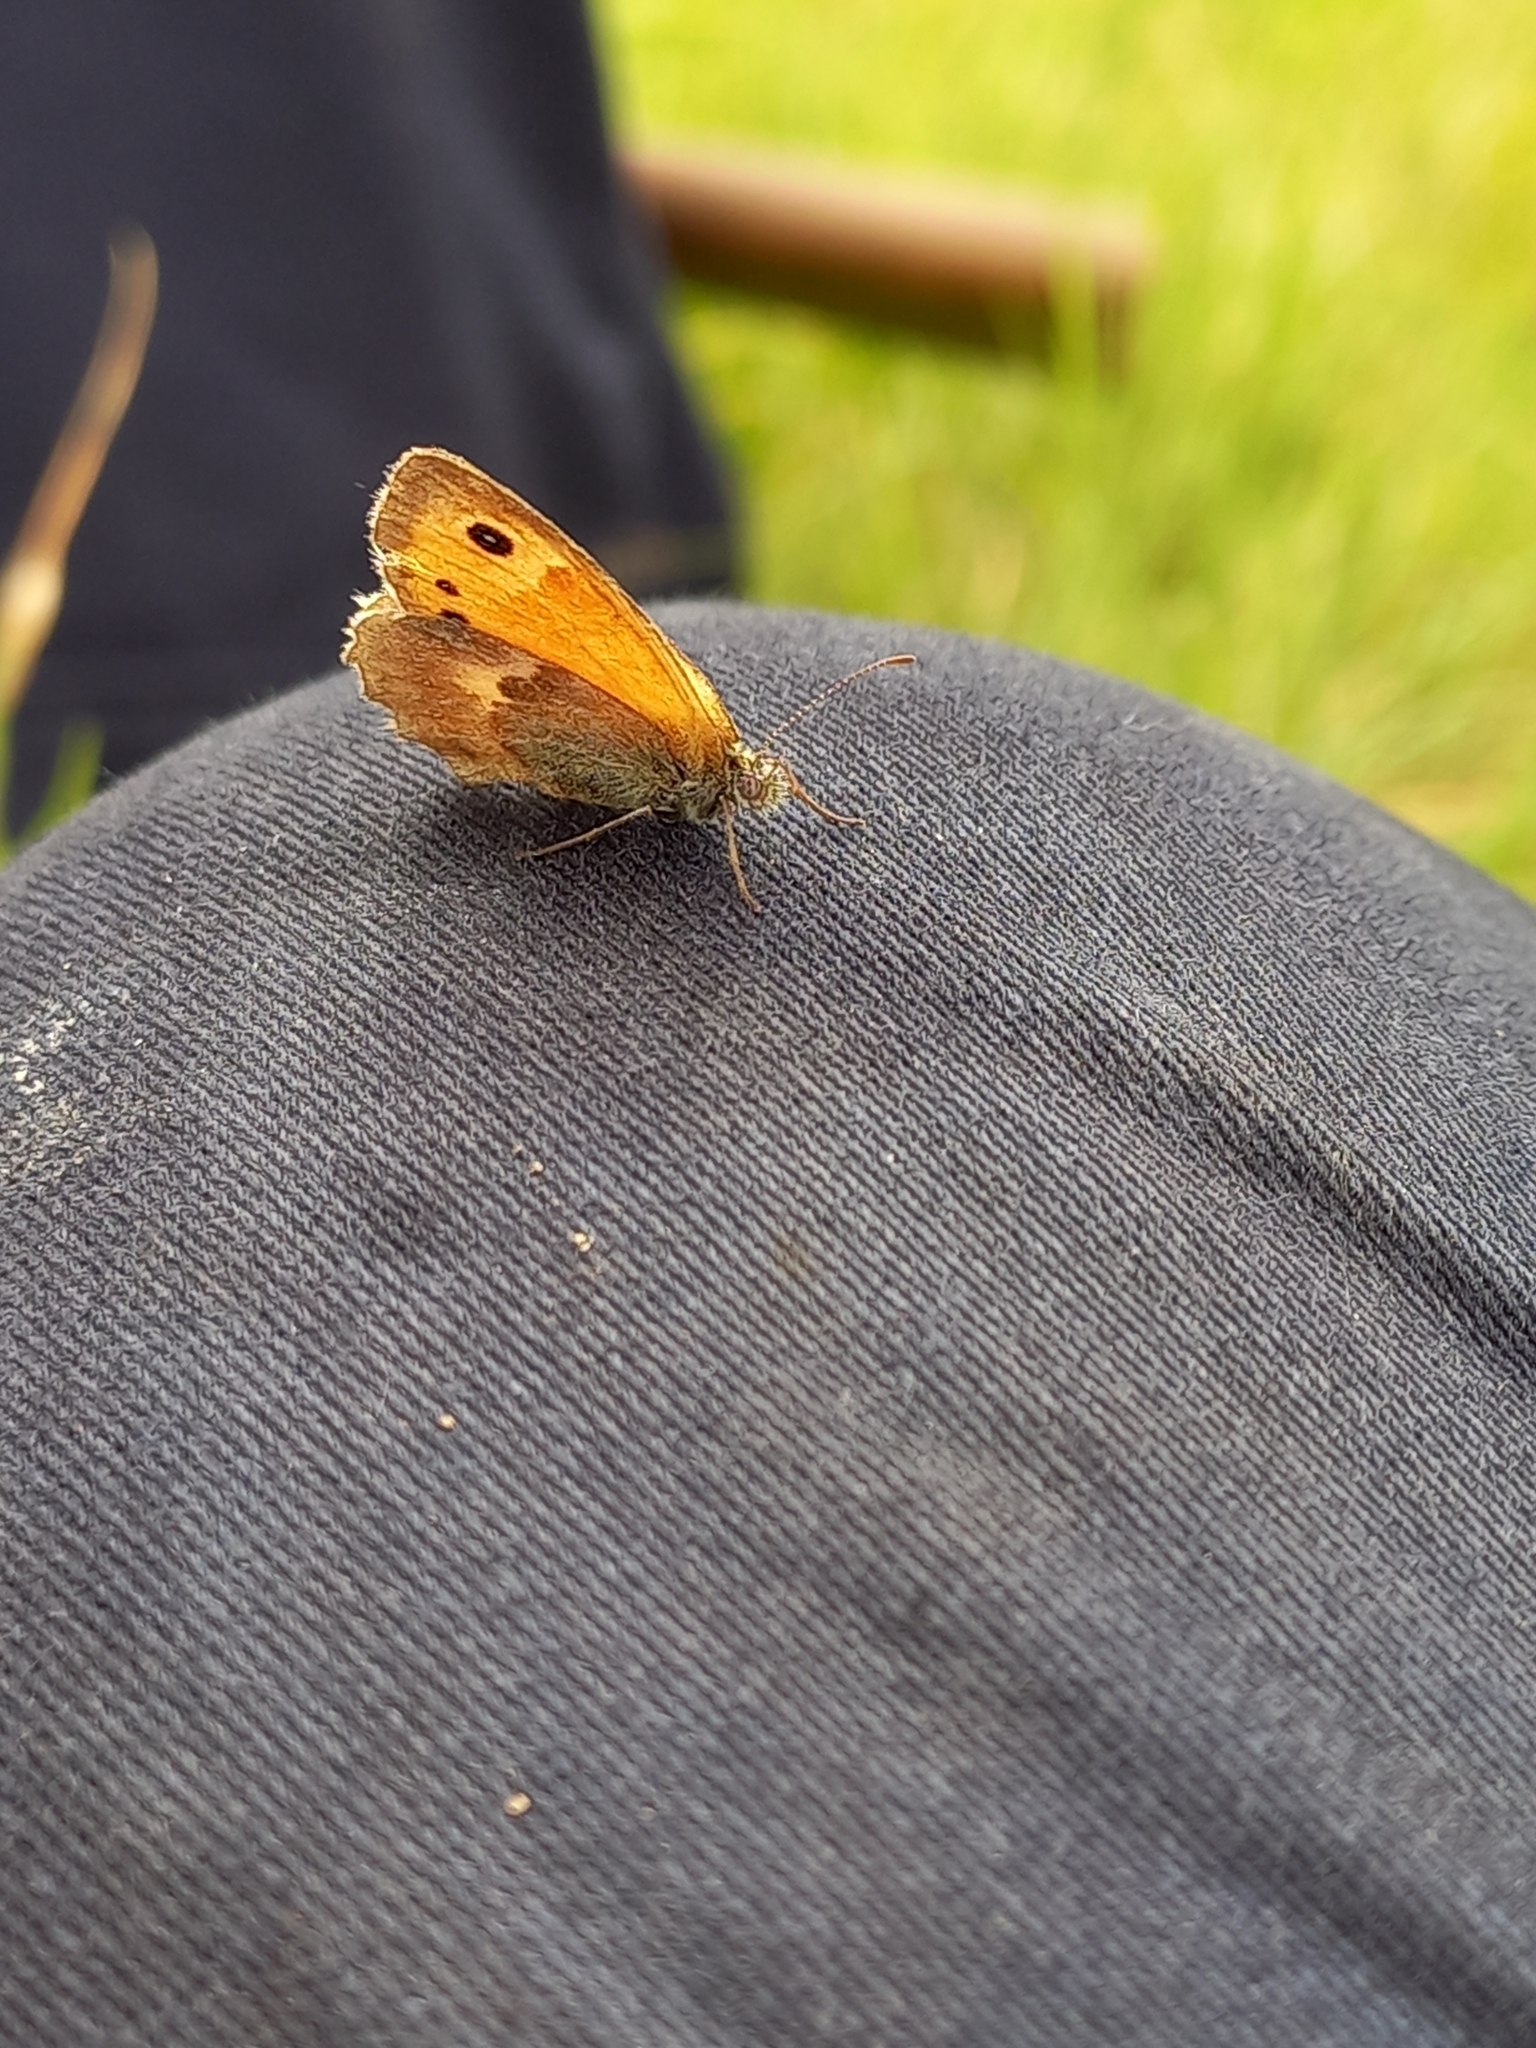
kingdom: Animalia
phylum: Arthropoda
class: Insecta
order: Lepidoptera
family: Nymphalidae
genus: Coenonympha
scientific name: Coenonympha pamphilus
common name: Small heath
